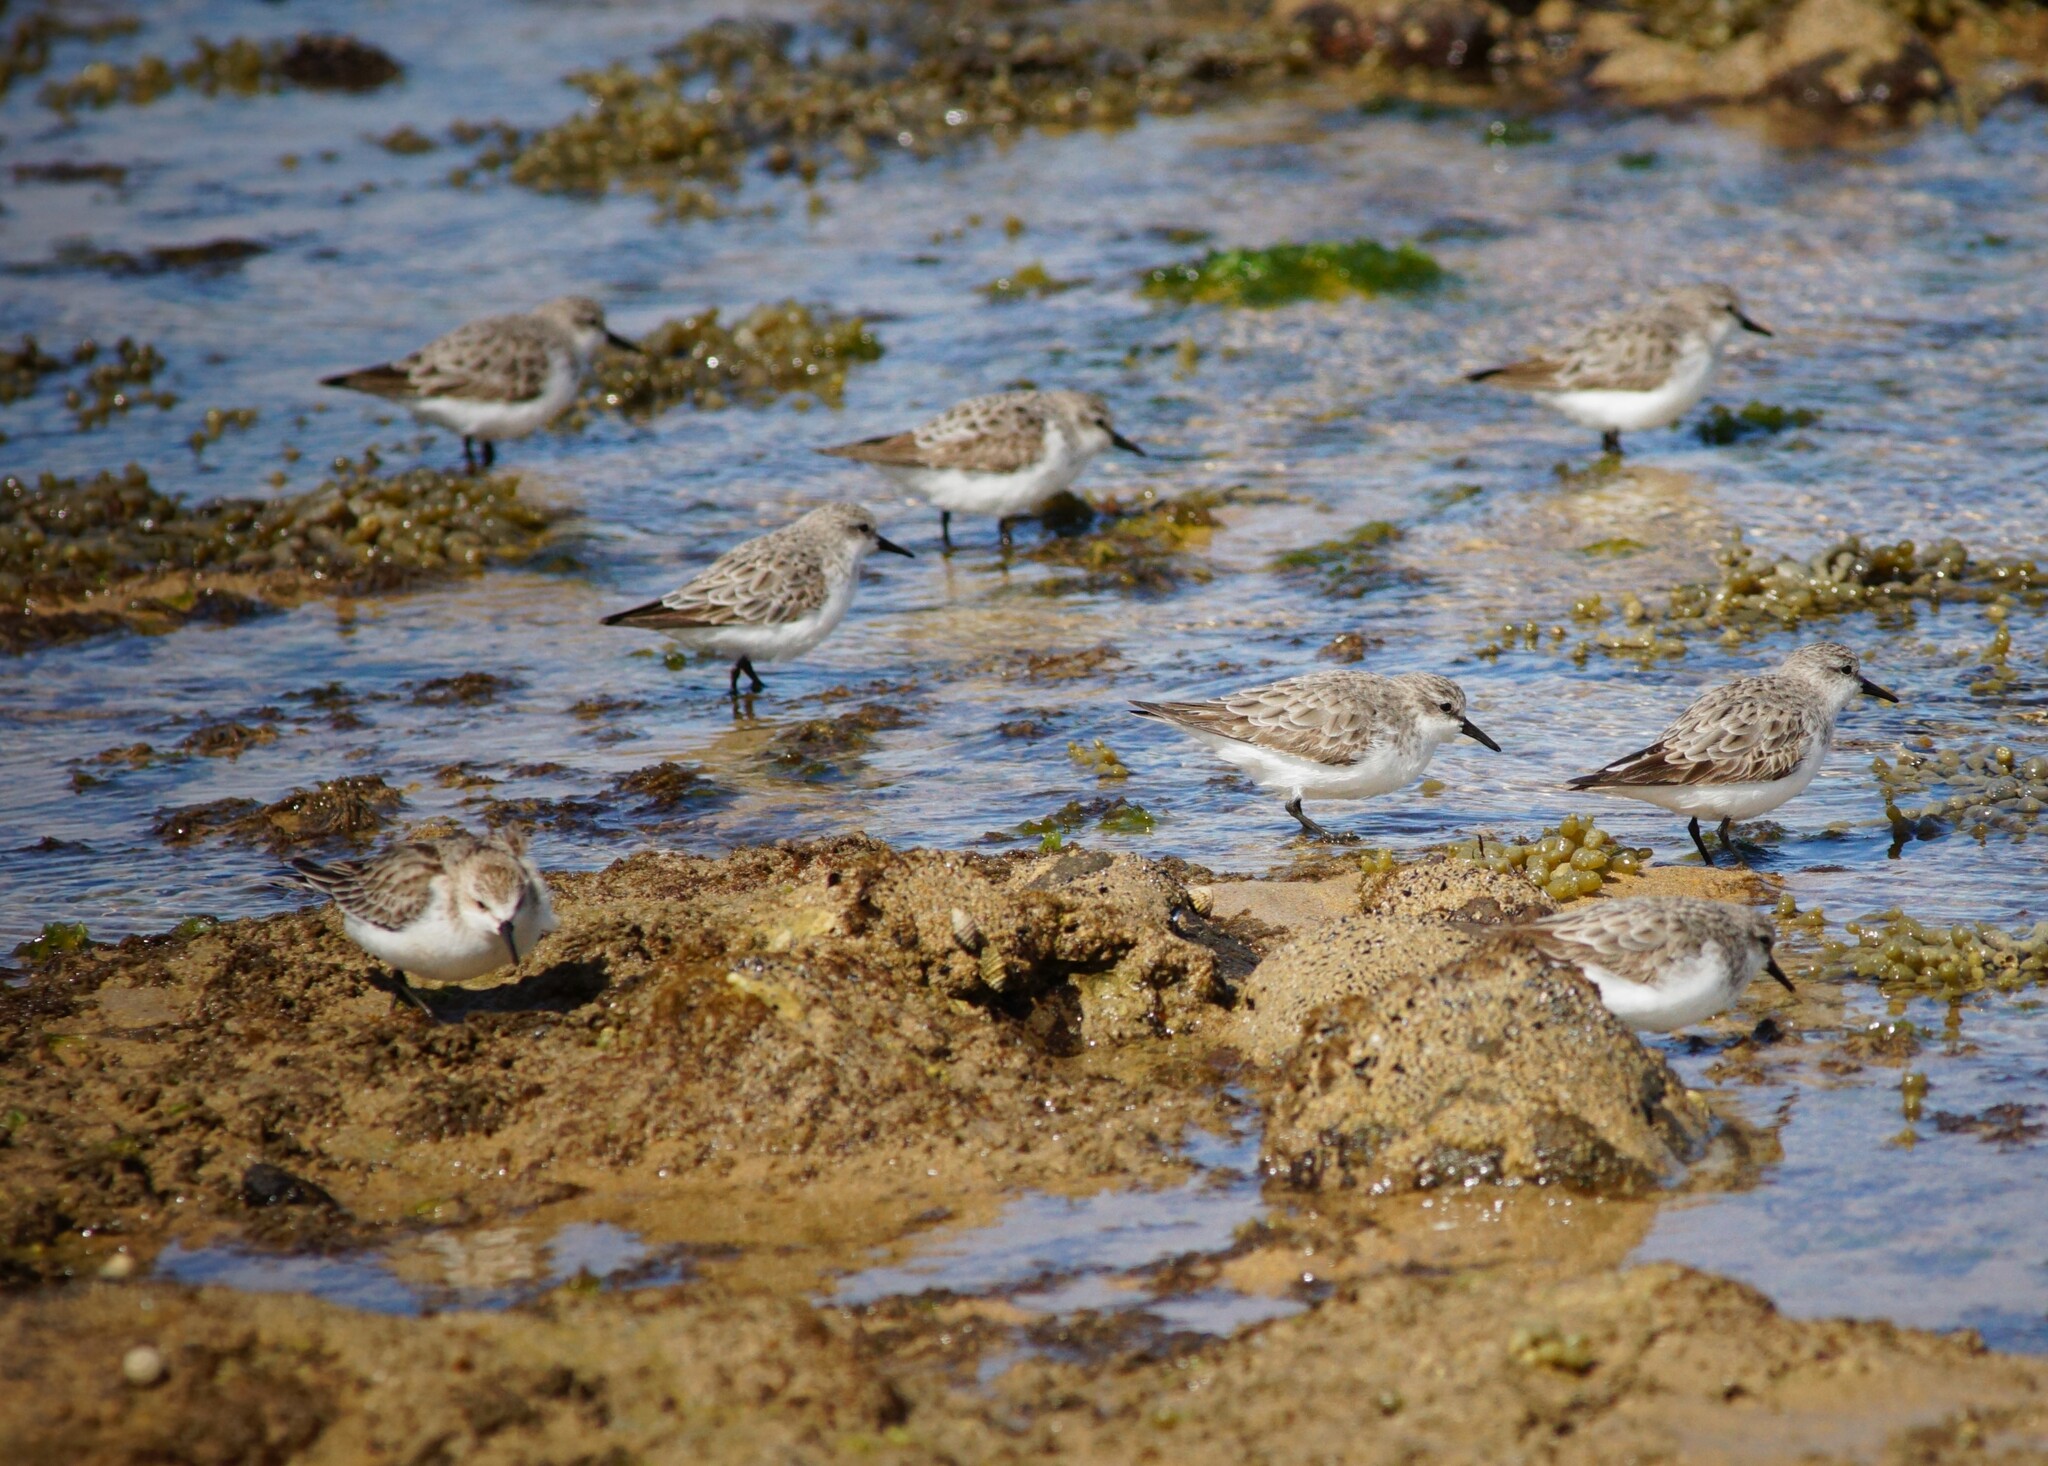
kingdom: Animalia
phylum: Chordata
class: Aves
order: Charadriiformes
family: Scolopacidae
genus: Calidris
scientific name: Calidris ruficollis
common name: Red-necked stint
